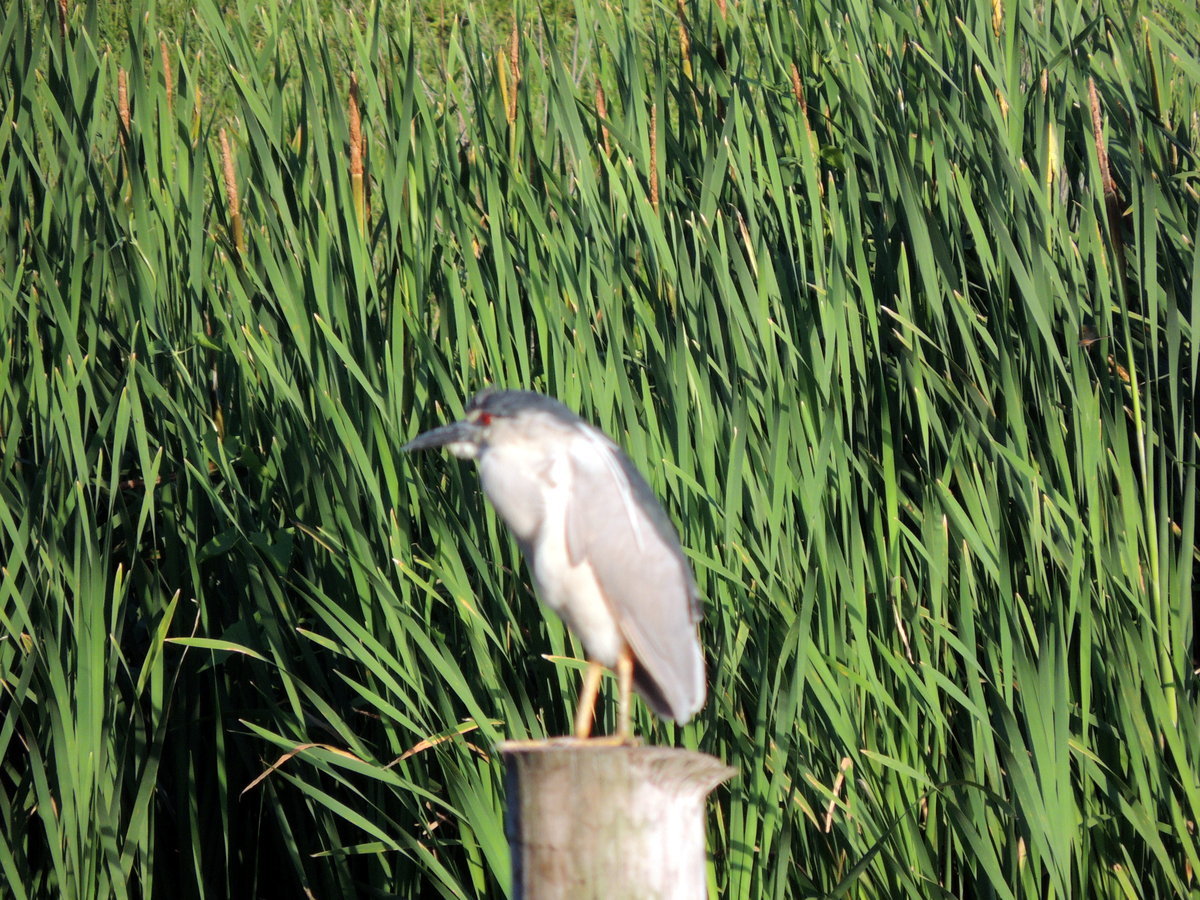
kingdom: Animalia
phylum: Chordata
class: Aves
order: Pelecaniformes
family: Ardeidae
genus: Nycticorax
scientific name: Nycticorax nycticorax
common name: Black-crowned night heron
